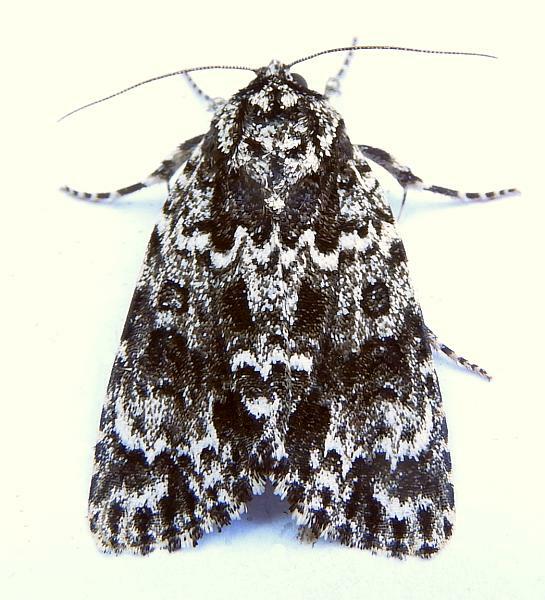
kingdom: Animalia
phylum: Arthropoda
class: Insecta
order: Lepidoptera
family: Noctuidae
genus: Acronicta
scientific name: Acronicta noctivaga
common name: Night-wandering dagger
